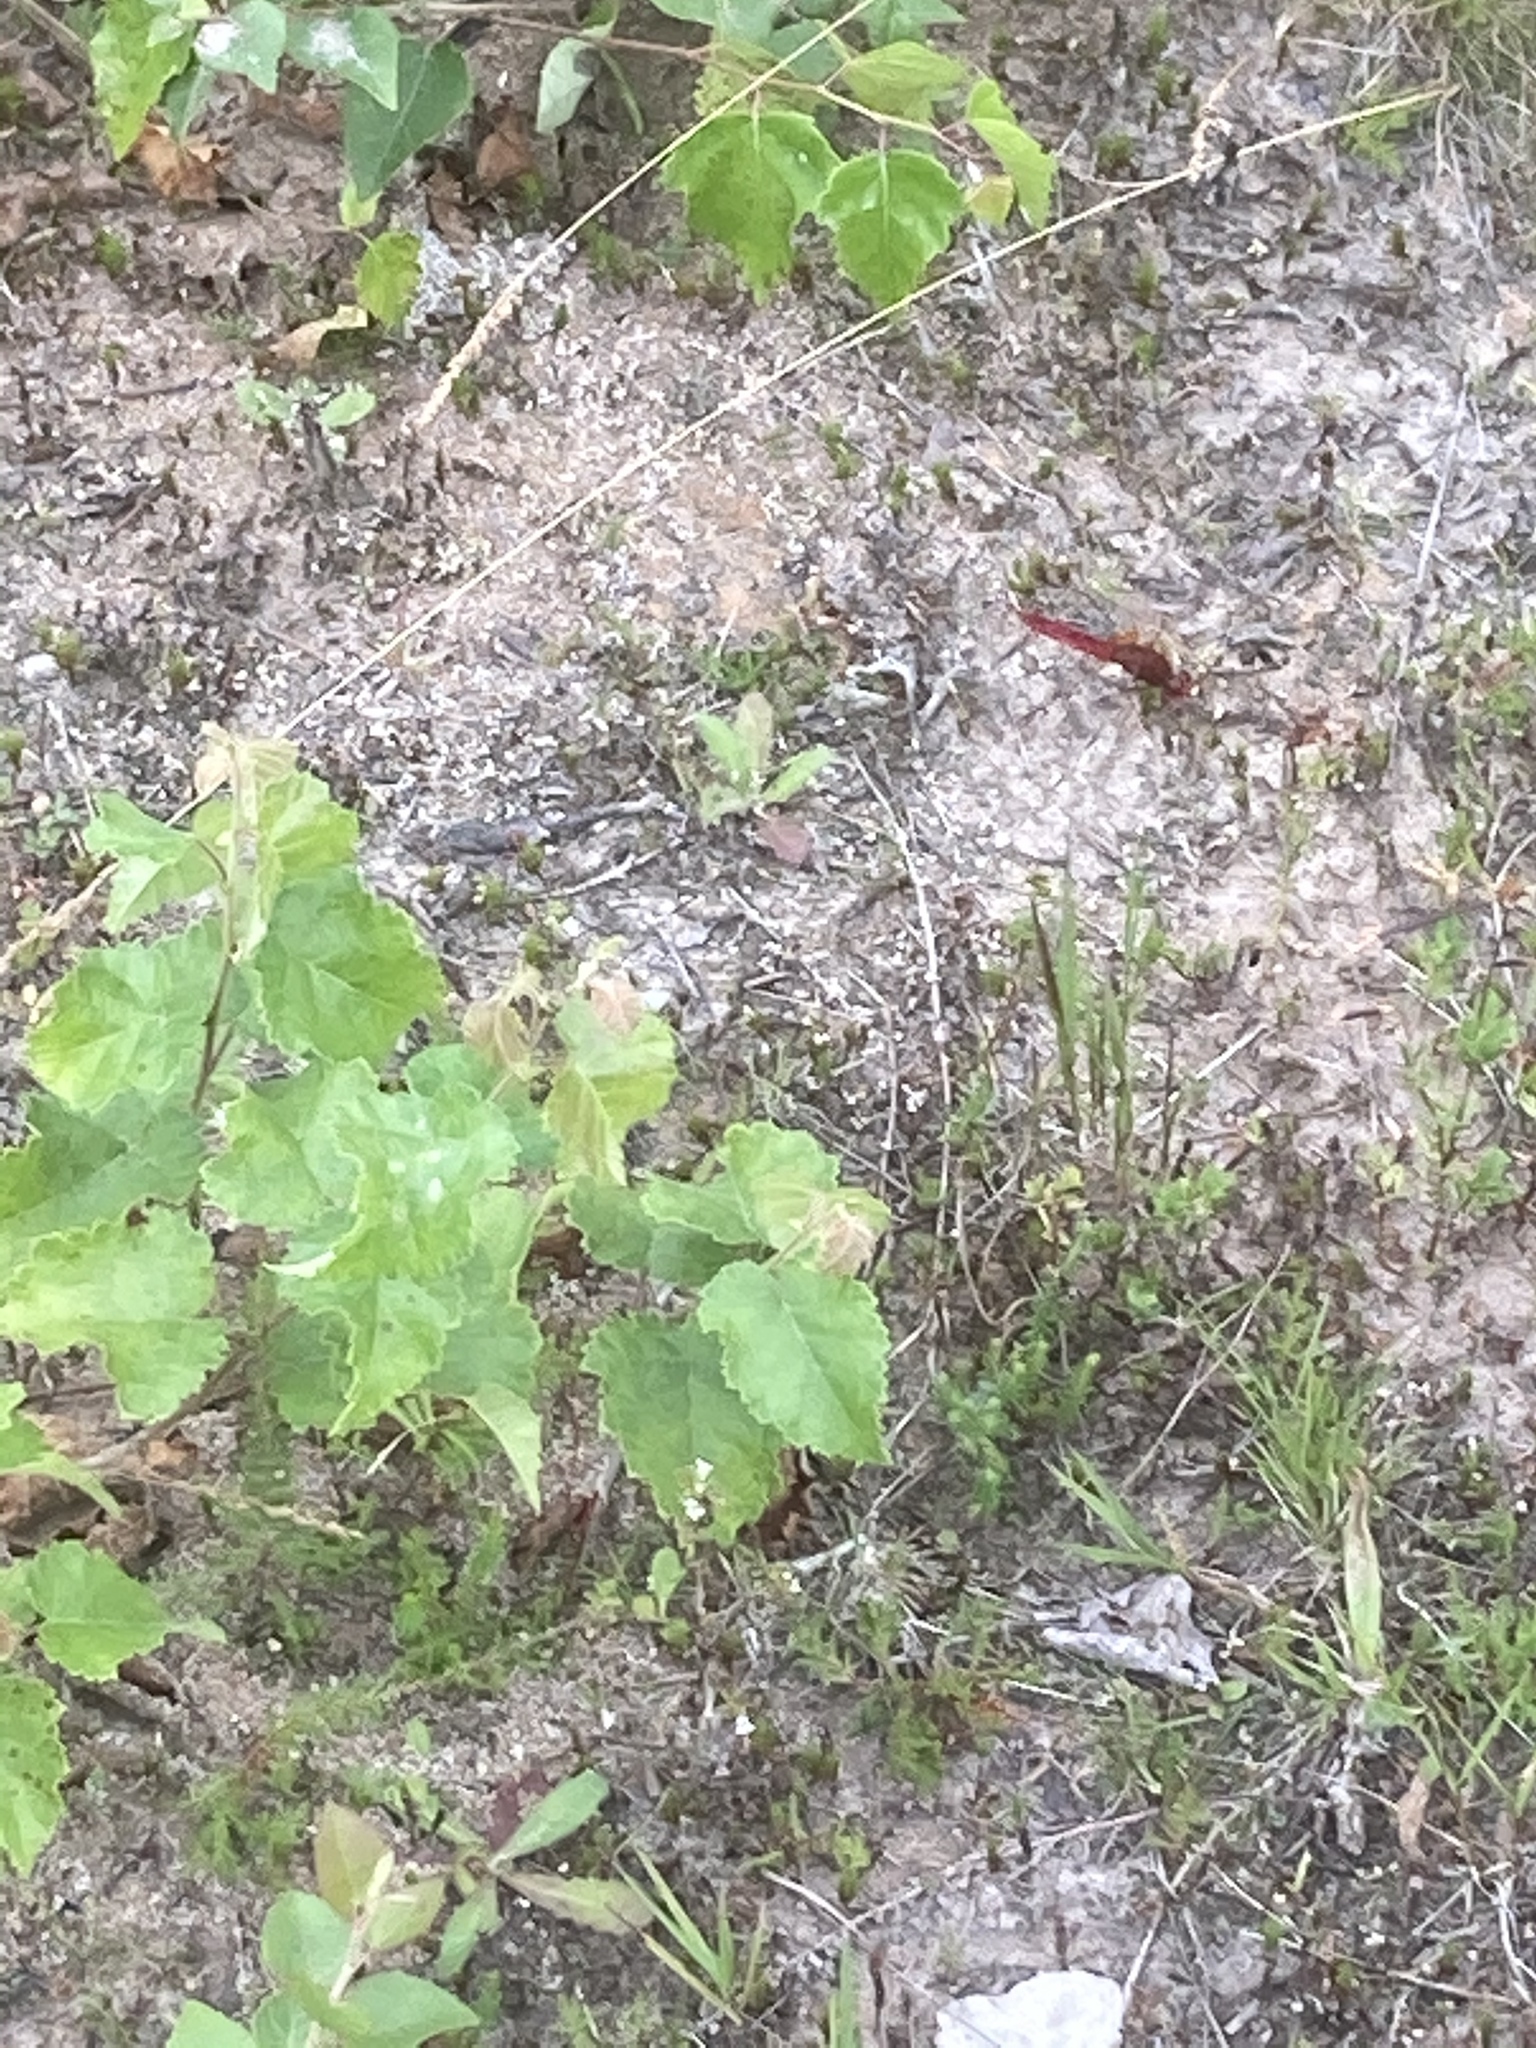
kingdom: Animalia
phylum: Arthropoda
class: Insecta
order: Odonata
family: Libellulidae
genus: Crocothemis
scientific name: Crocothemis erythraea
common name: Scarlet dragonfly
